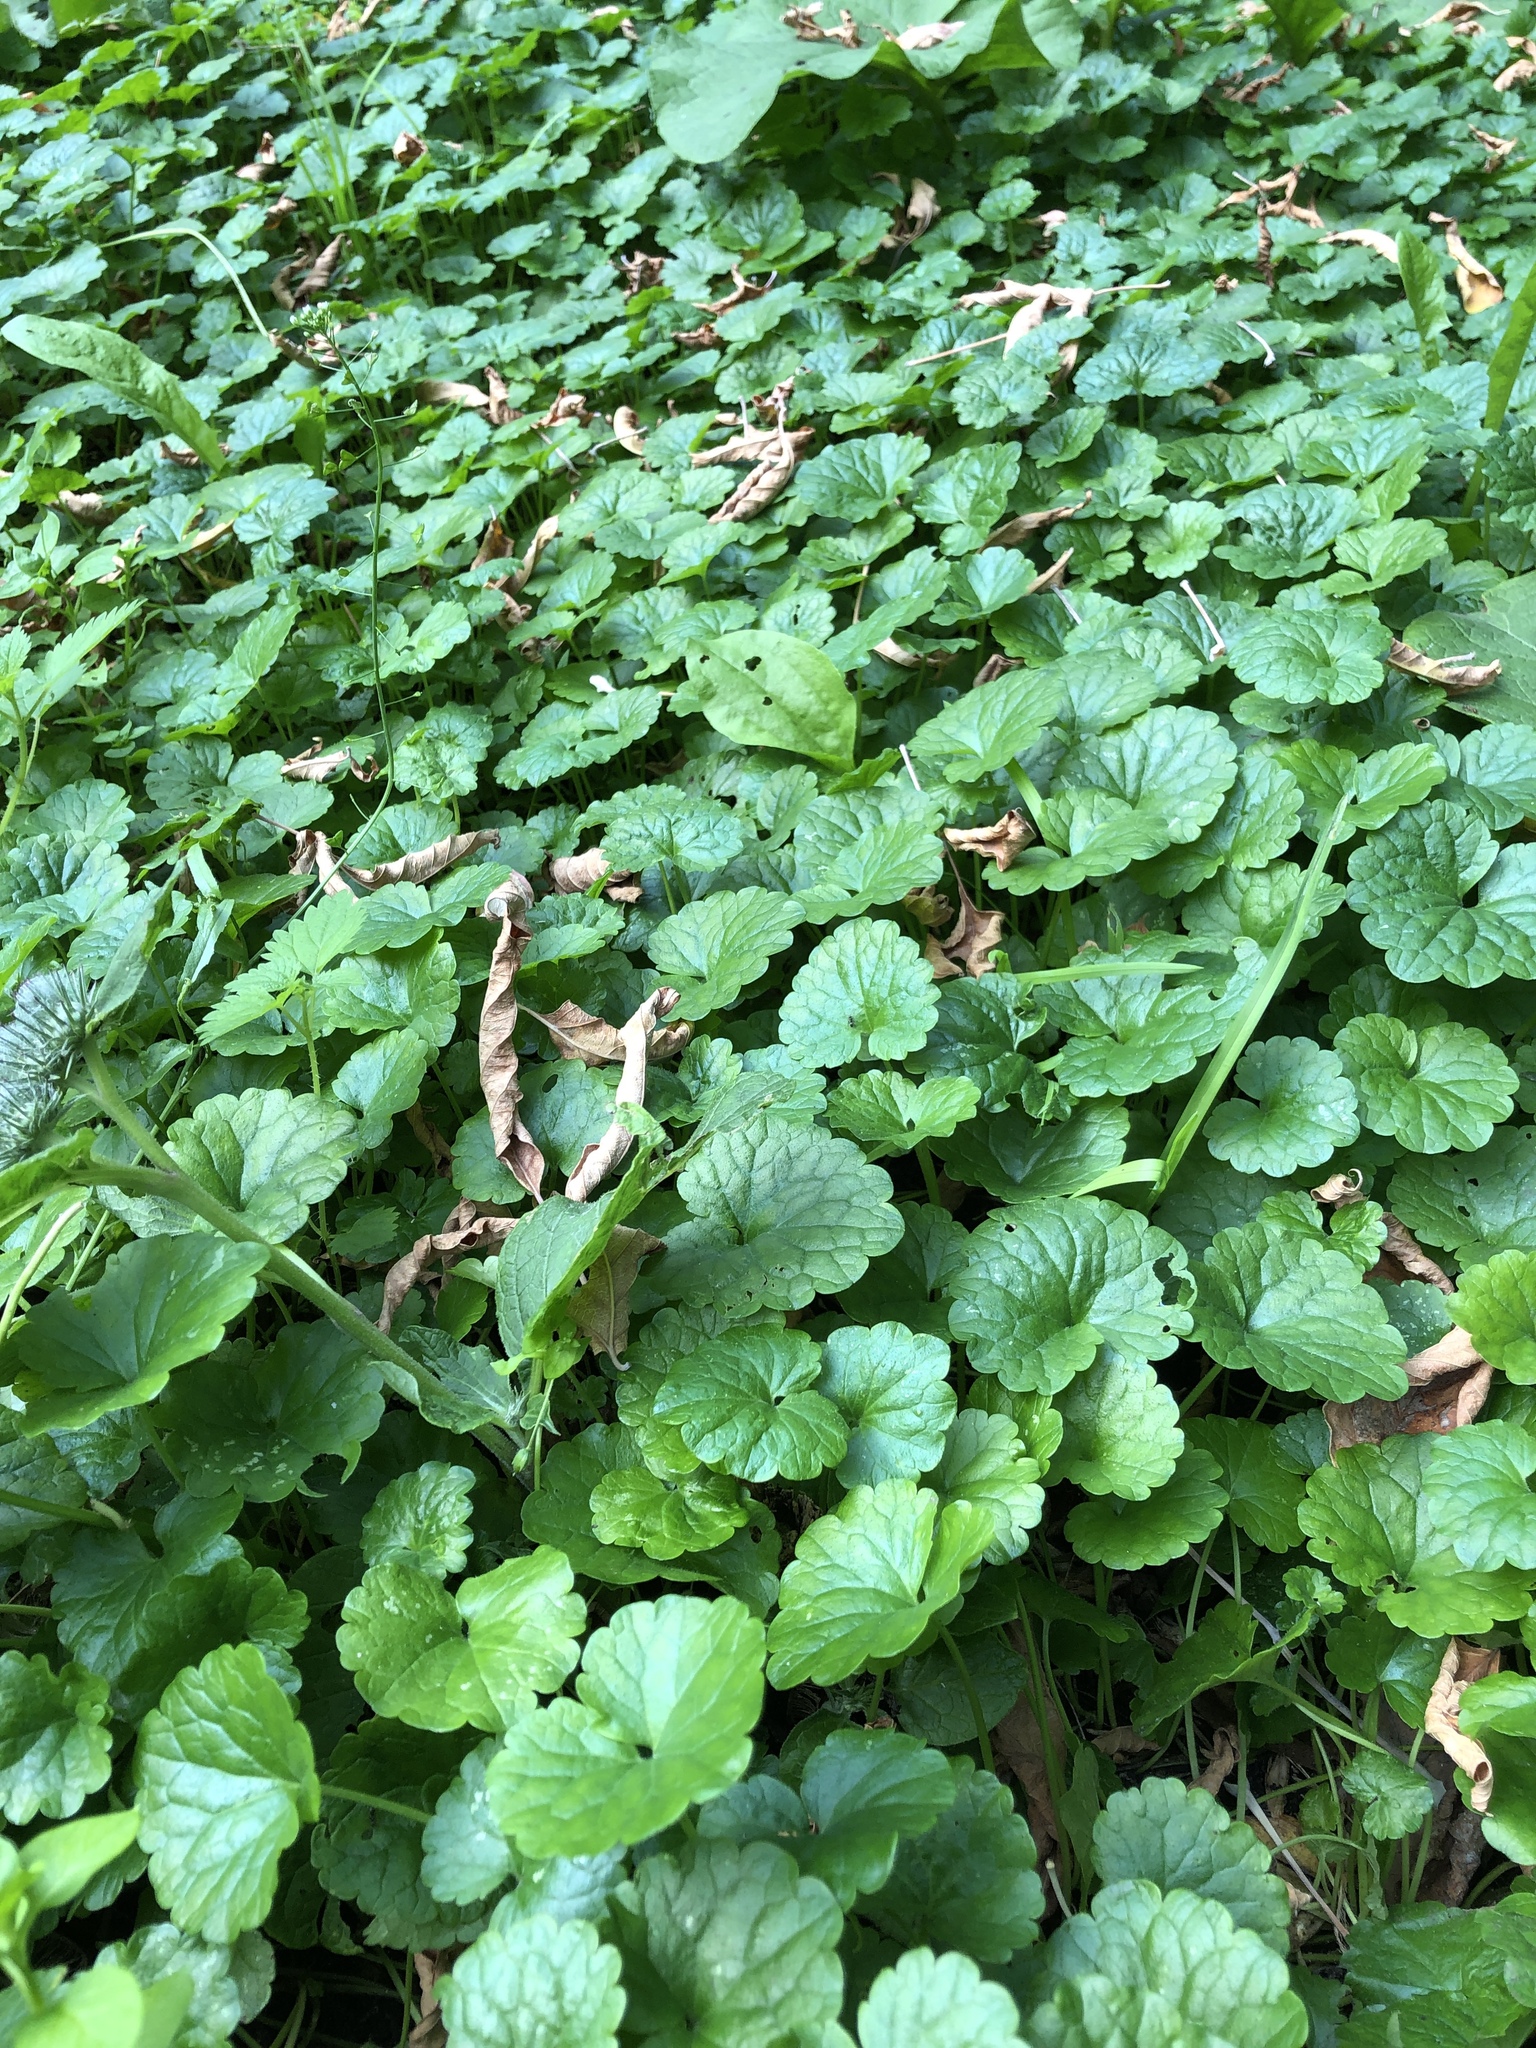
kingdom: Plantae
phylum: Tracheophyta
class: Magnoliopsida
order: Lamiales
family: Lamiaceae
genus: Glechoma
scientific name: Glechoma hederacea
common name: Ground ivy
